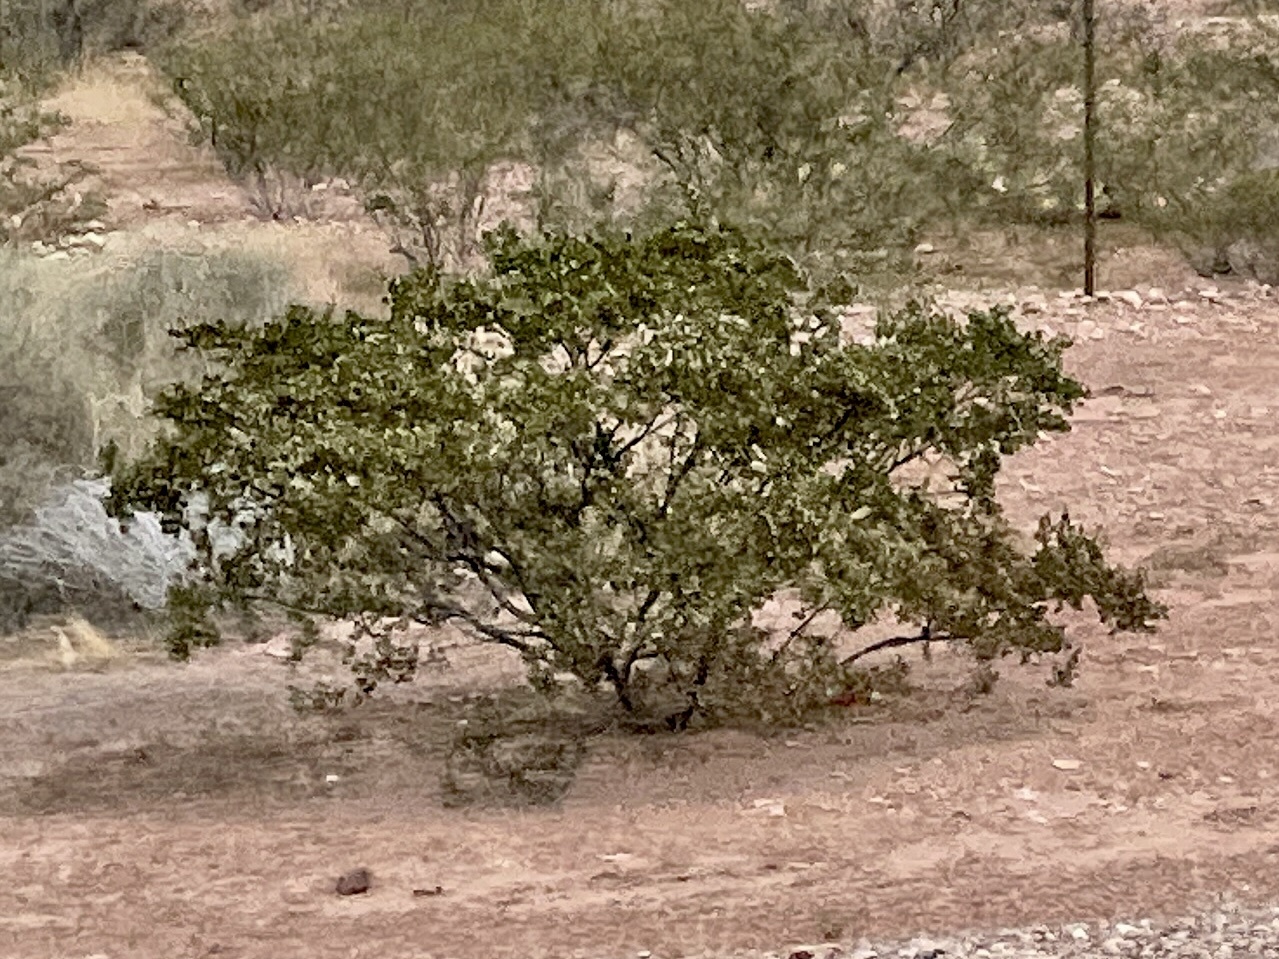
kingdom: Plantae
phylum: Tracheophyta
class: Magnoliopsida
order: Zygophyllales
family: Zygophyllaceae
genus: Larrea
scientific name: Larrea tridentata
